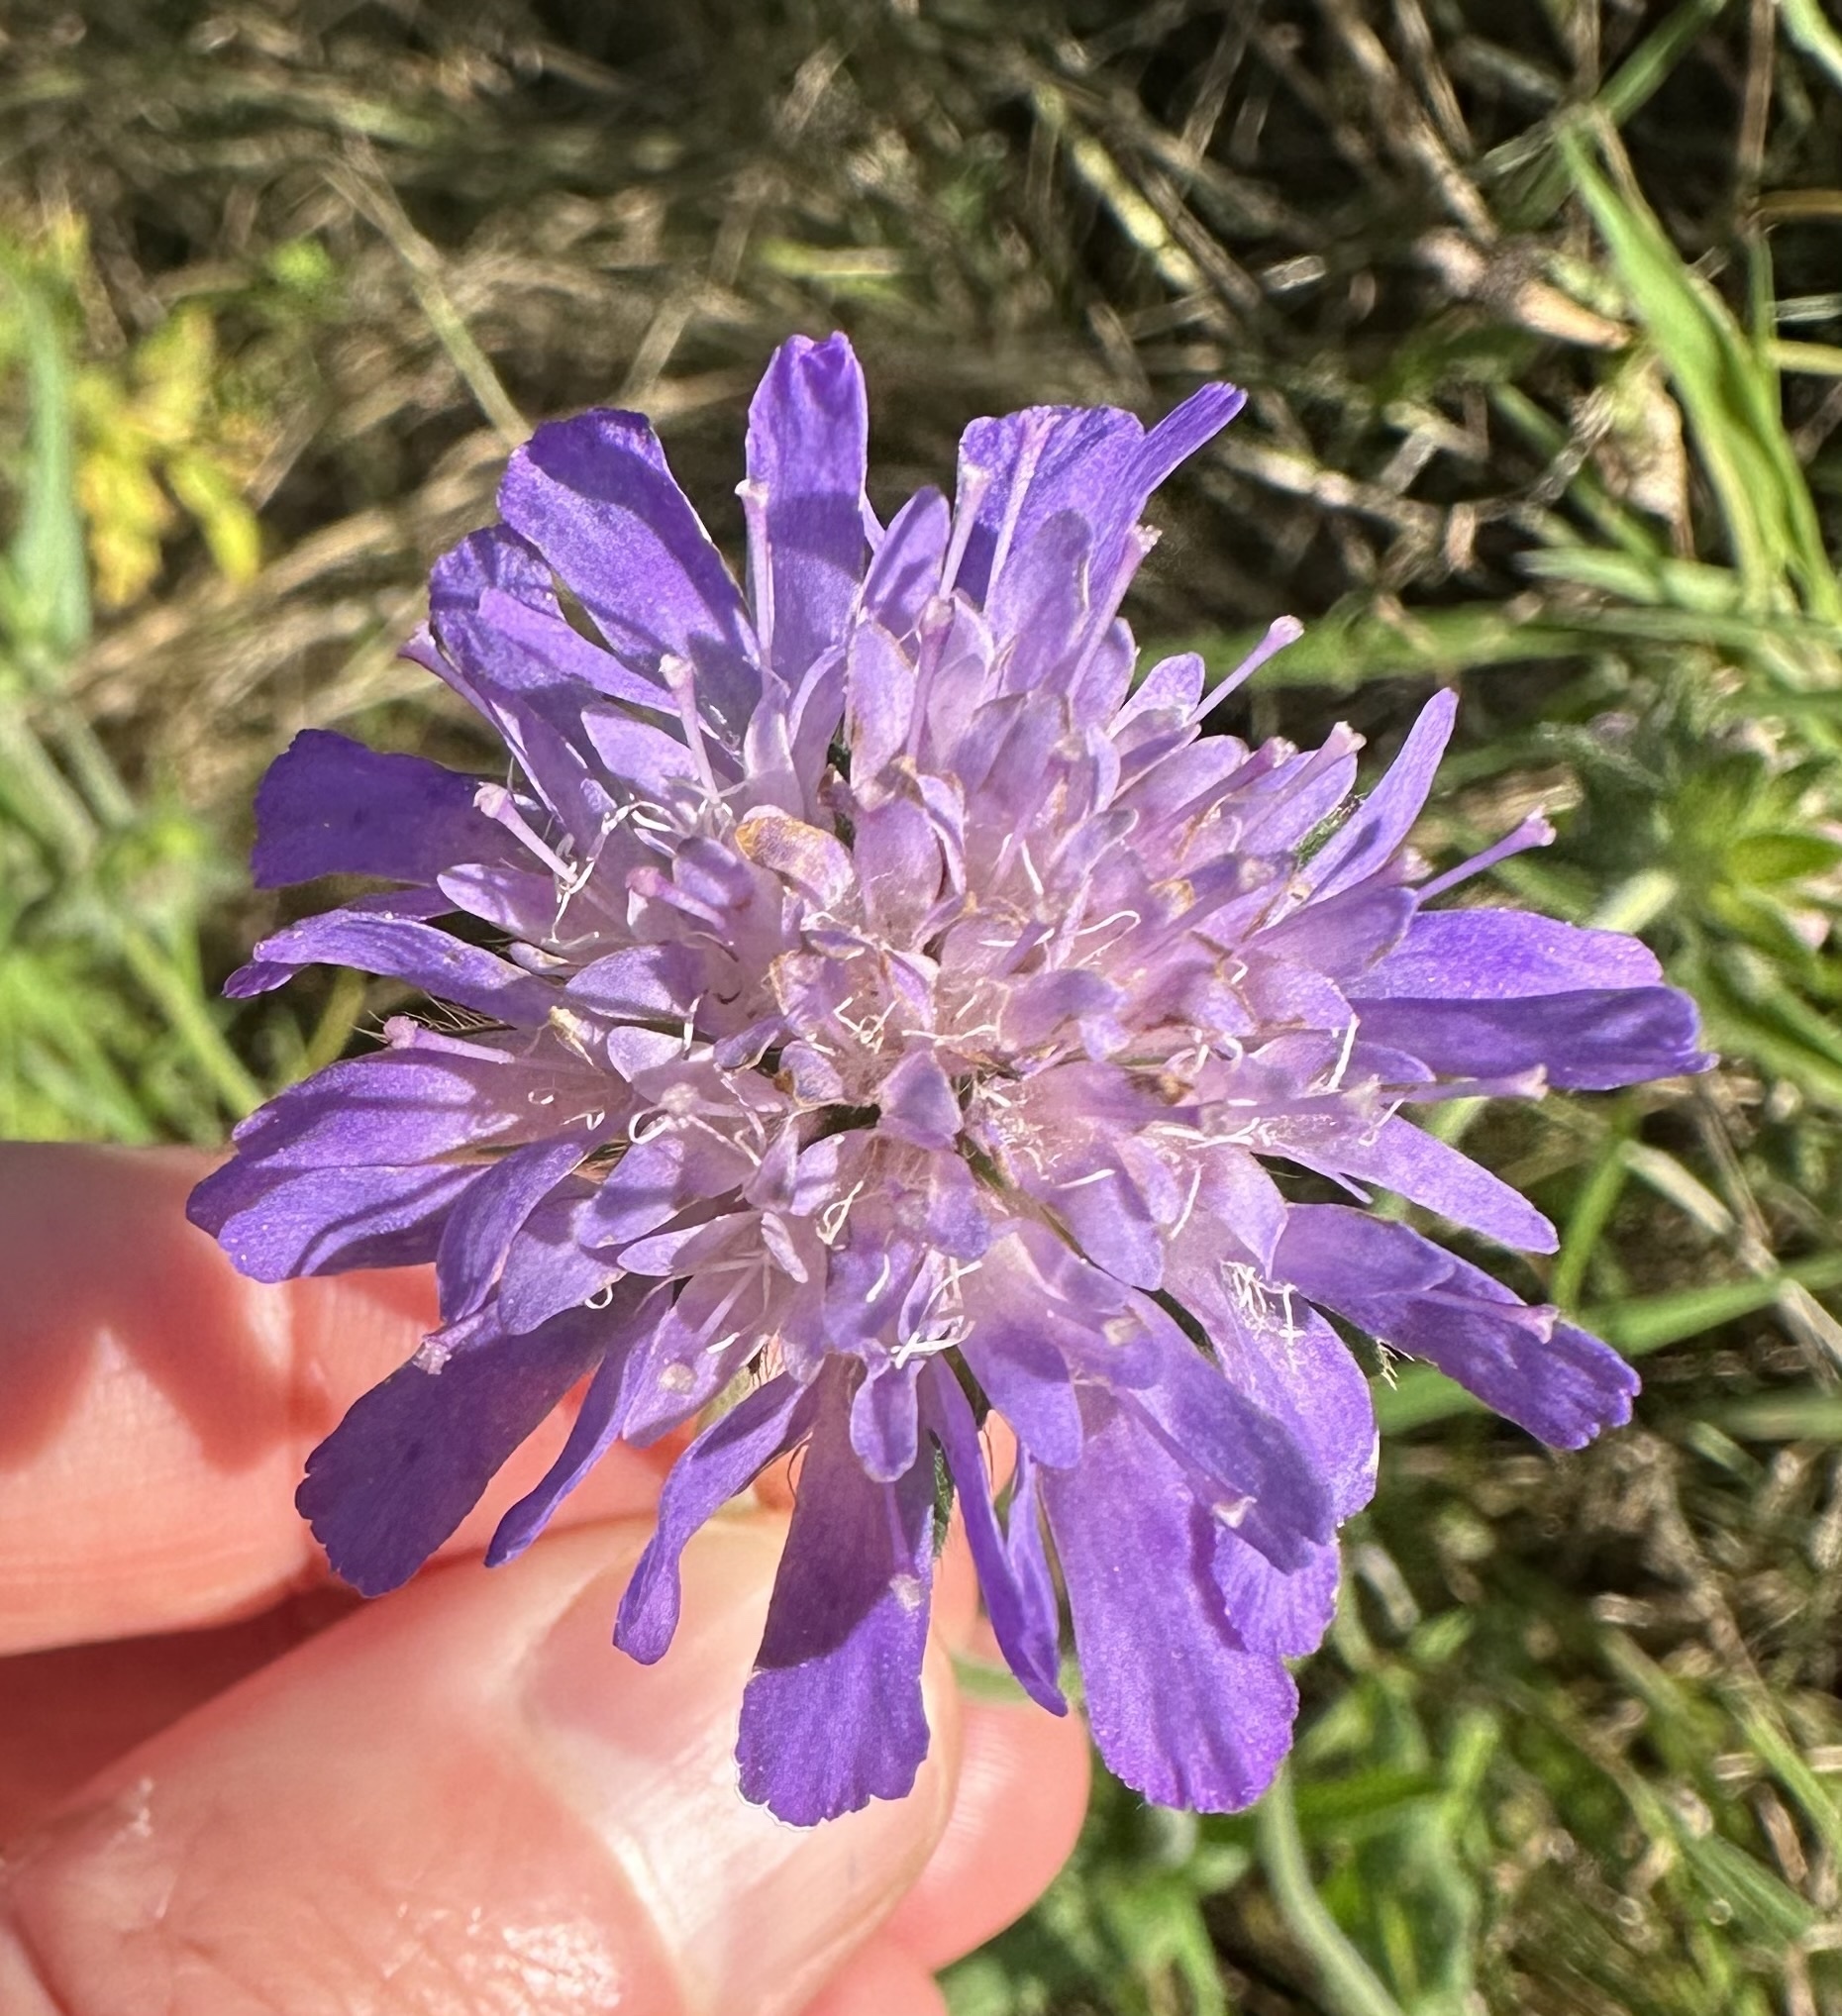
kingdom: Plantae
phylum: Tracheophyta
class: Magnoliopsida
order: Dipsacales
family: Caprifoliaceae
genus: Knautia
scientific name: Knautia arvensis
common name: Field scabiosa
